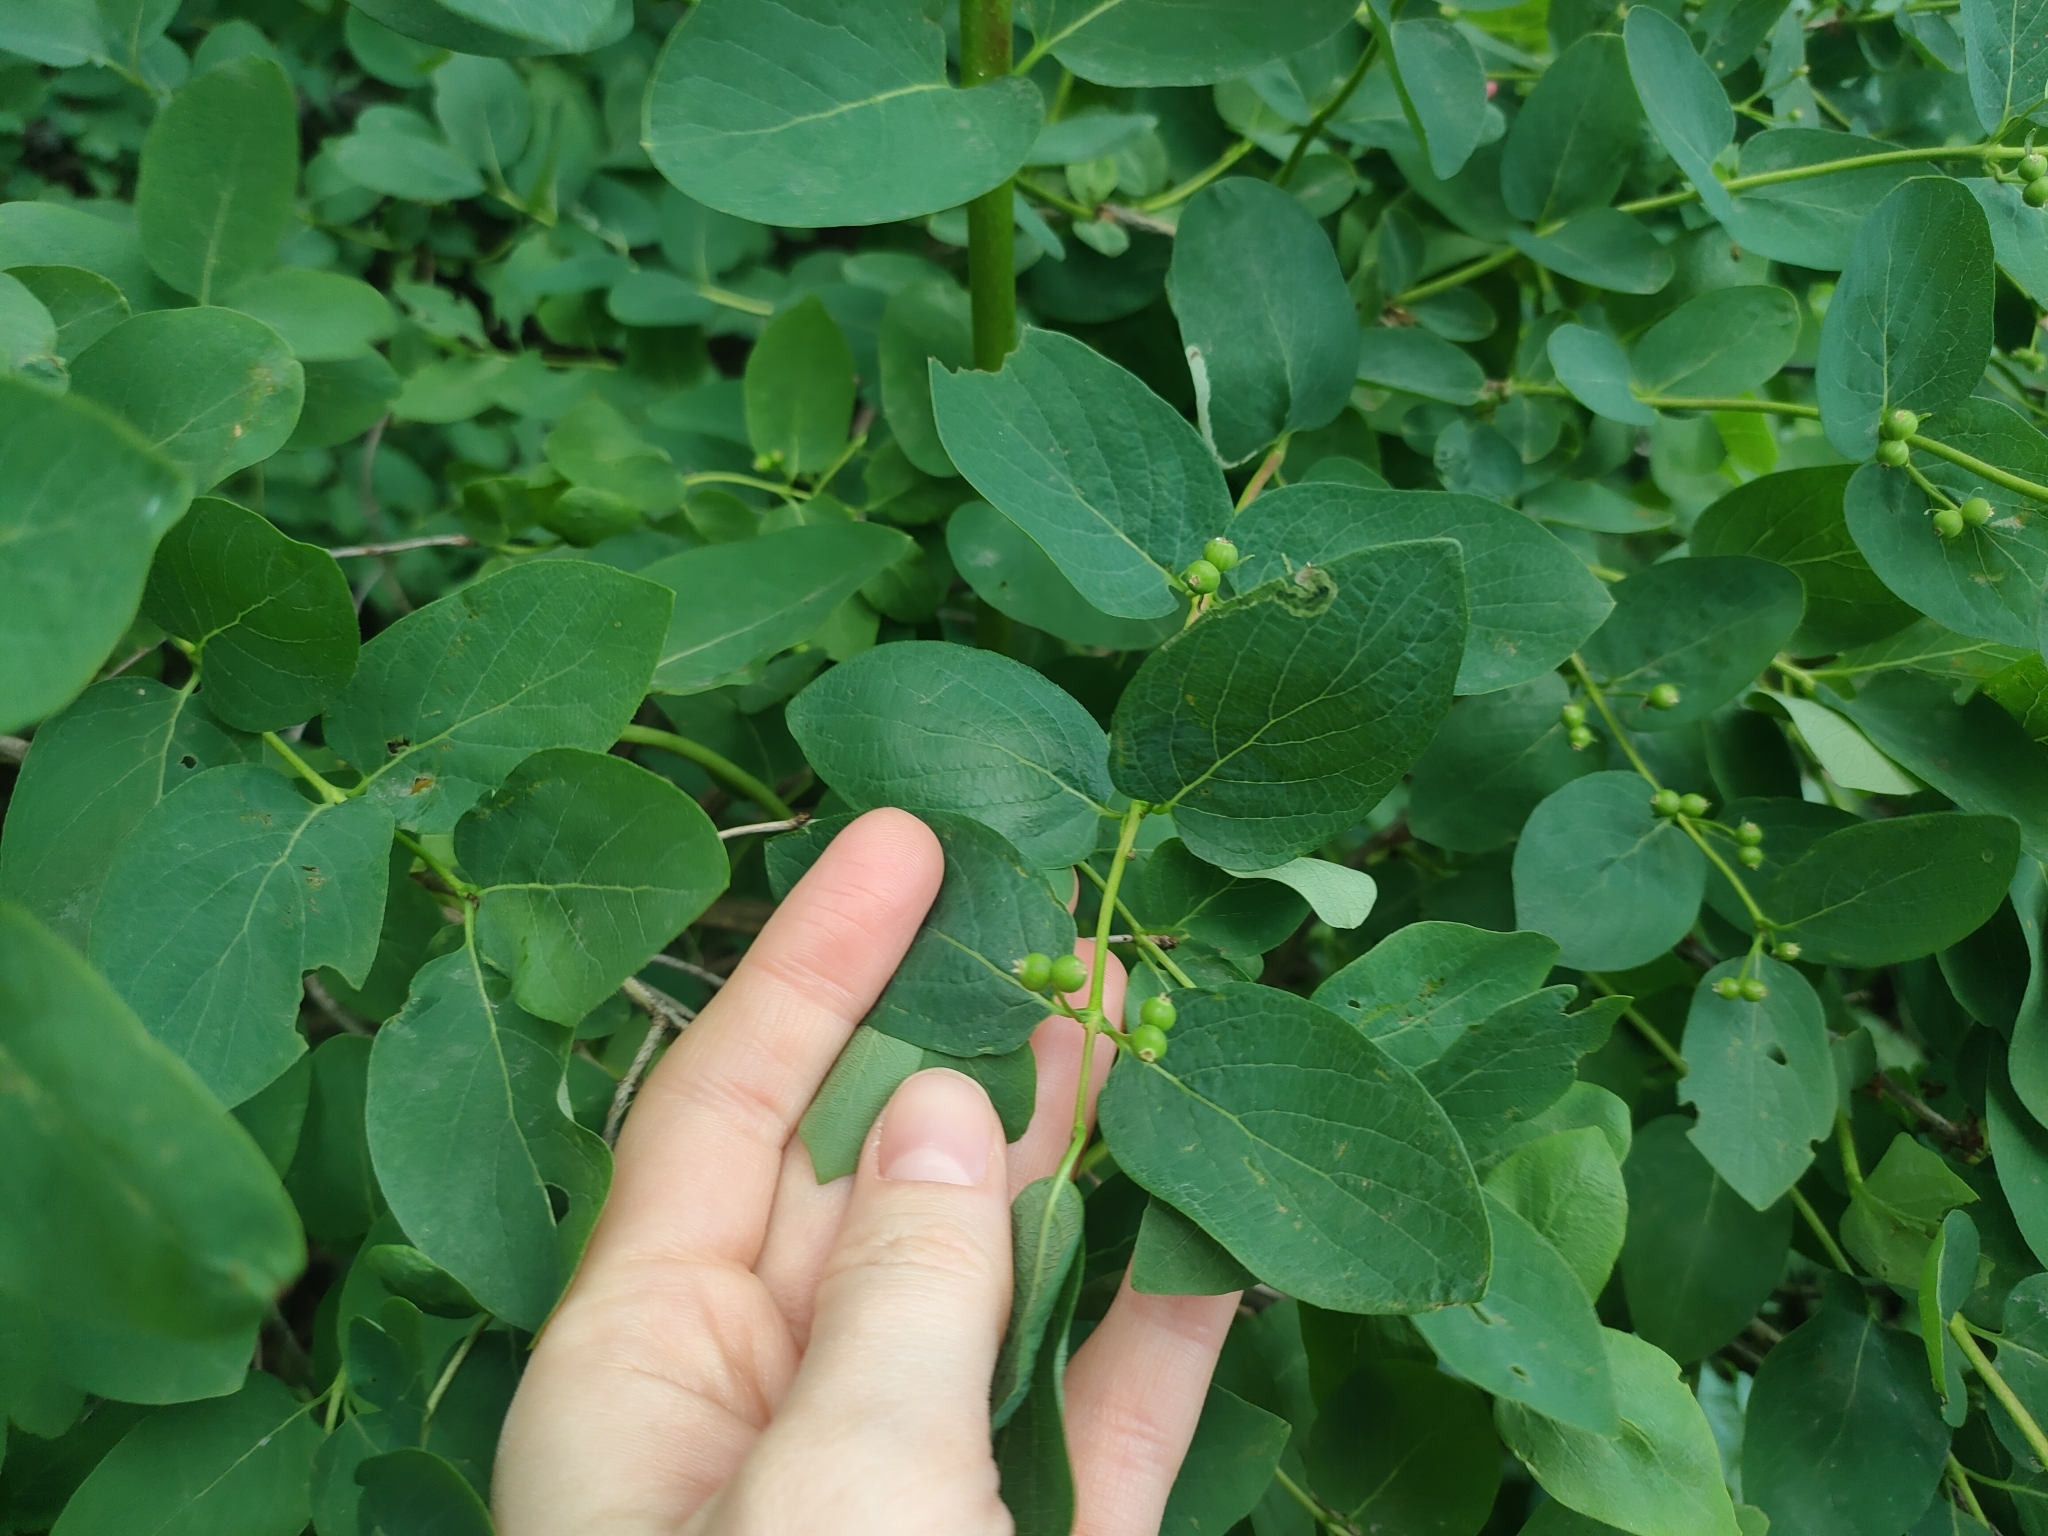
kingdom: Plantae
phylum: Tracheophyta
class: Magnoliopsida
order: Dipsacales
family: Caprifoliaceae
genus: Lonicera
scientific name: Lonicera tatarica
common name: Tatarian honeysuckle
